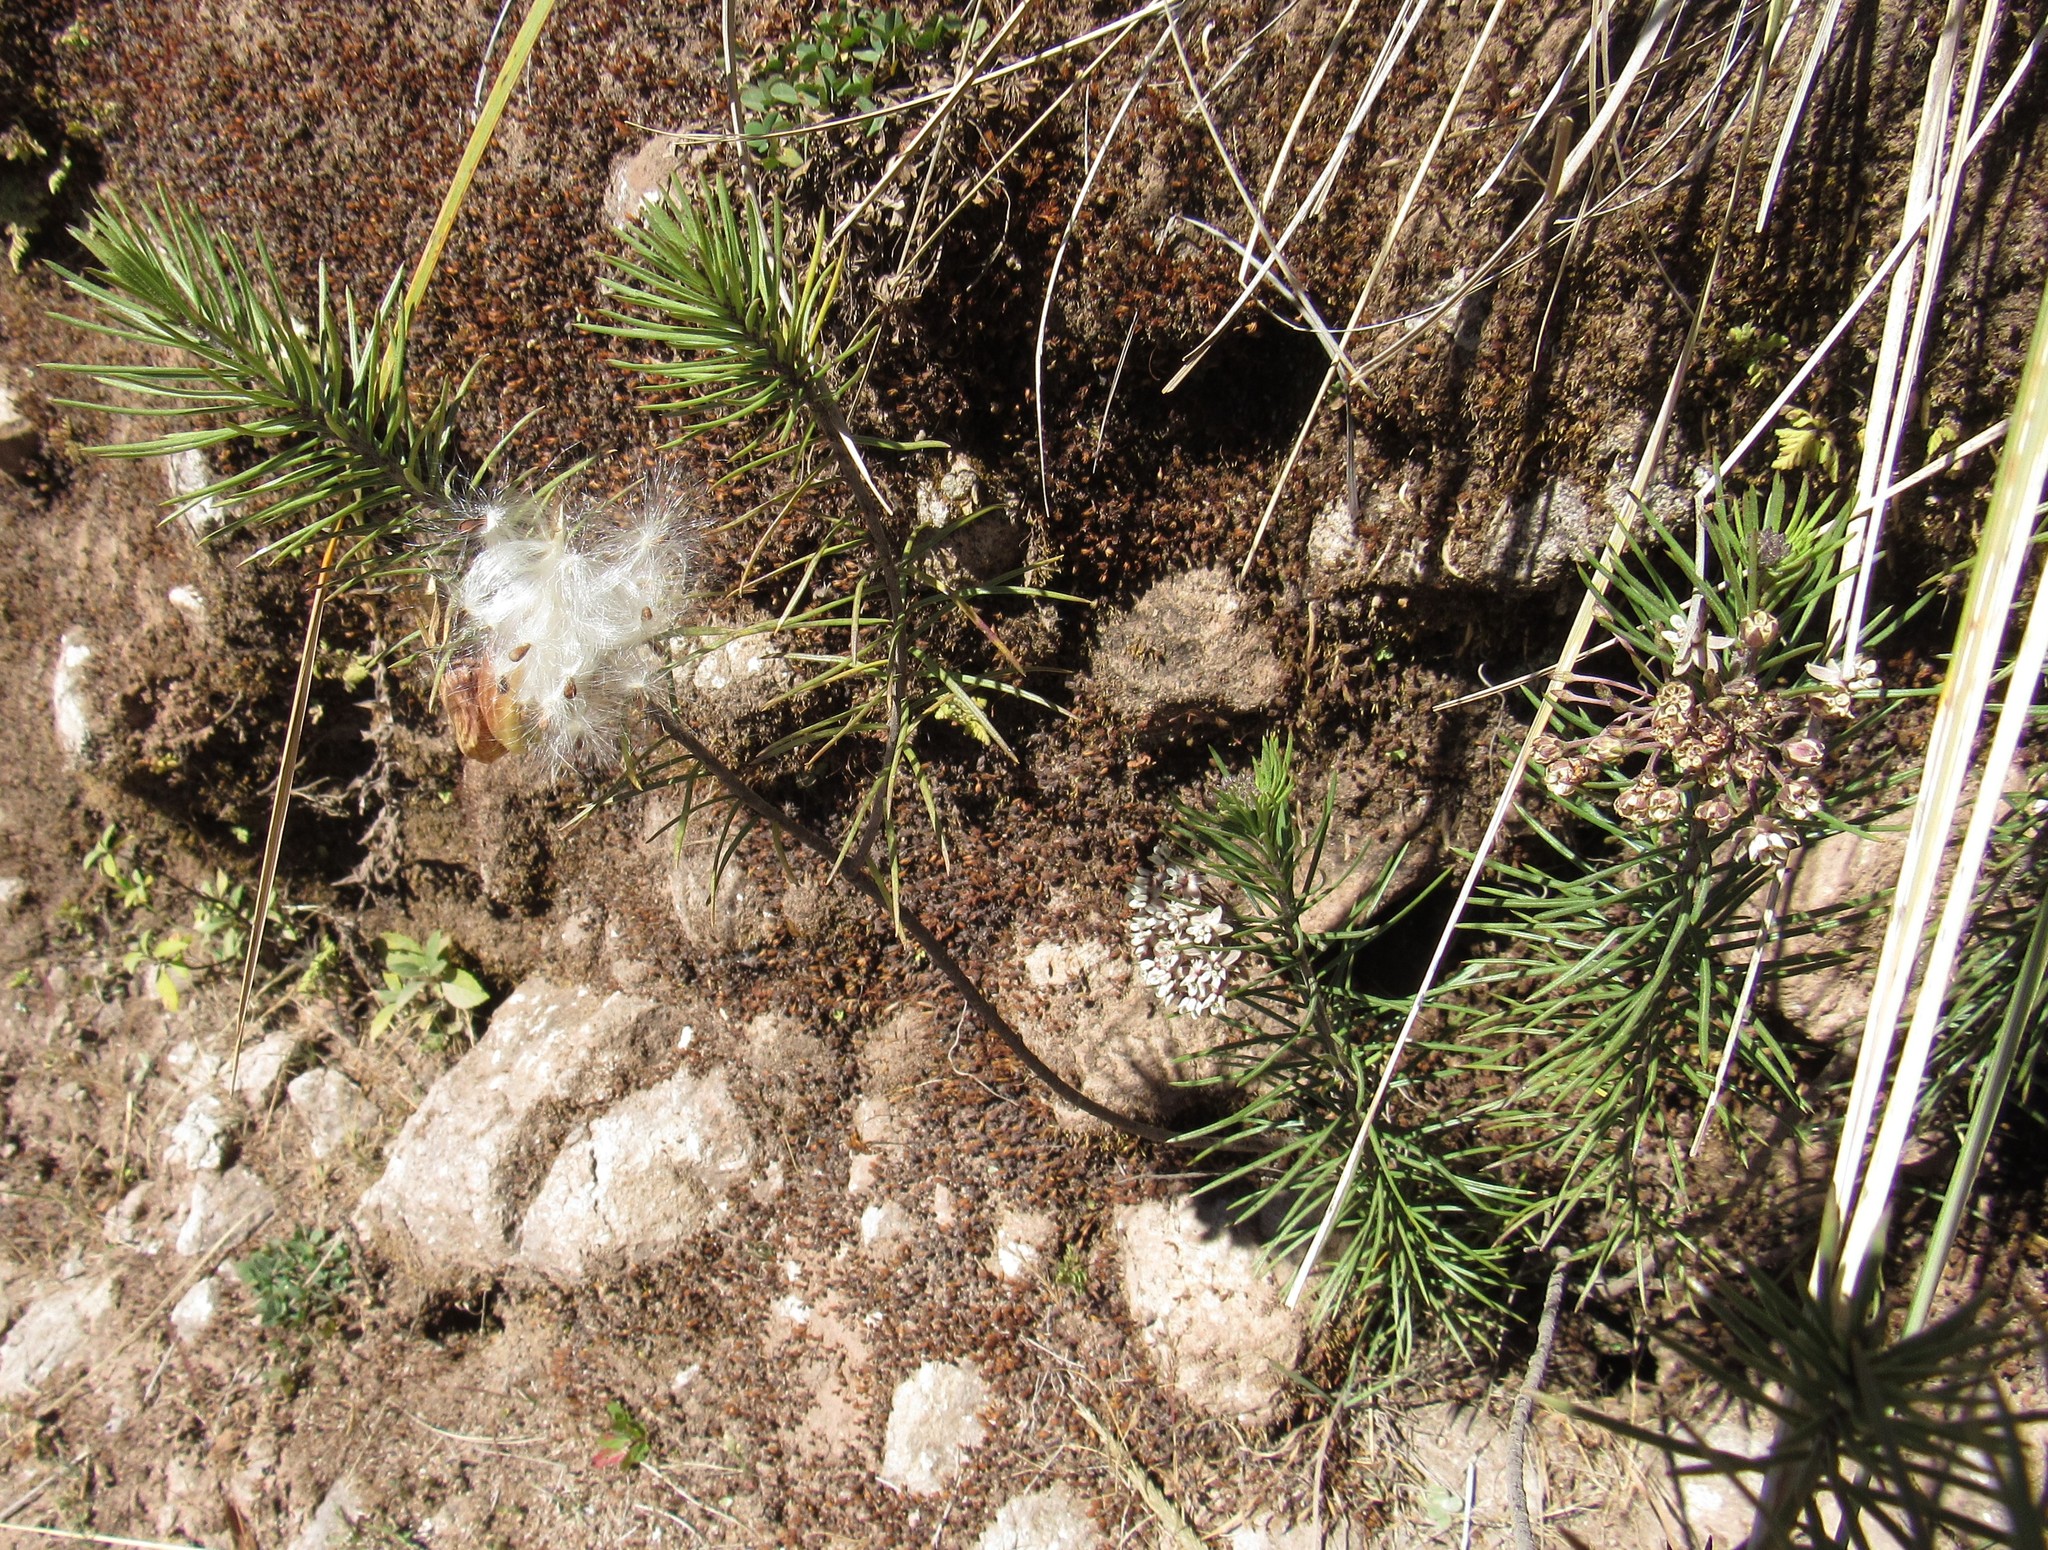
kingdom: Plantae
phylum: Tracheophyta
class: Magnoliopsida
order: Gentianales
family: Apocynaceae
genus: Asclepias
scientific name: Asclepias linaria
